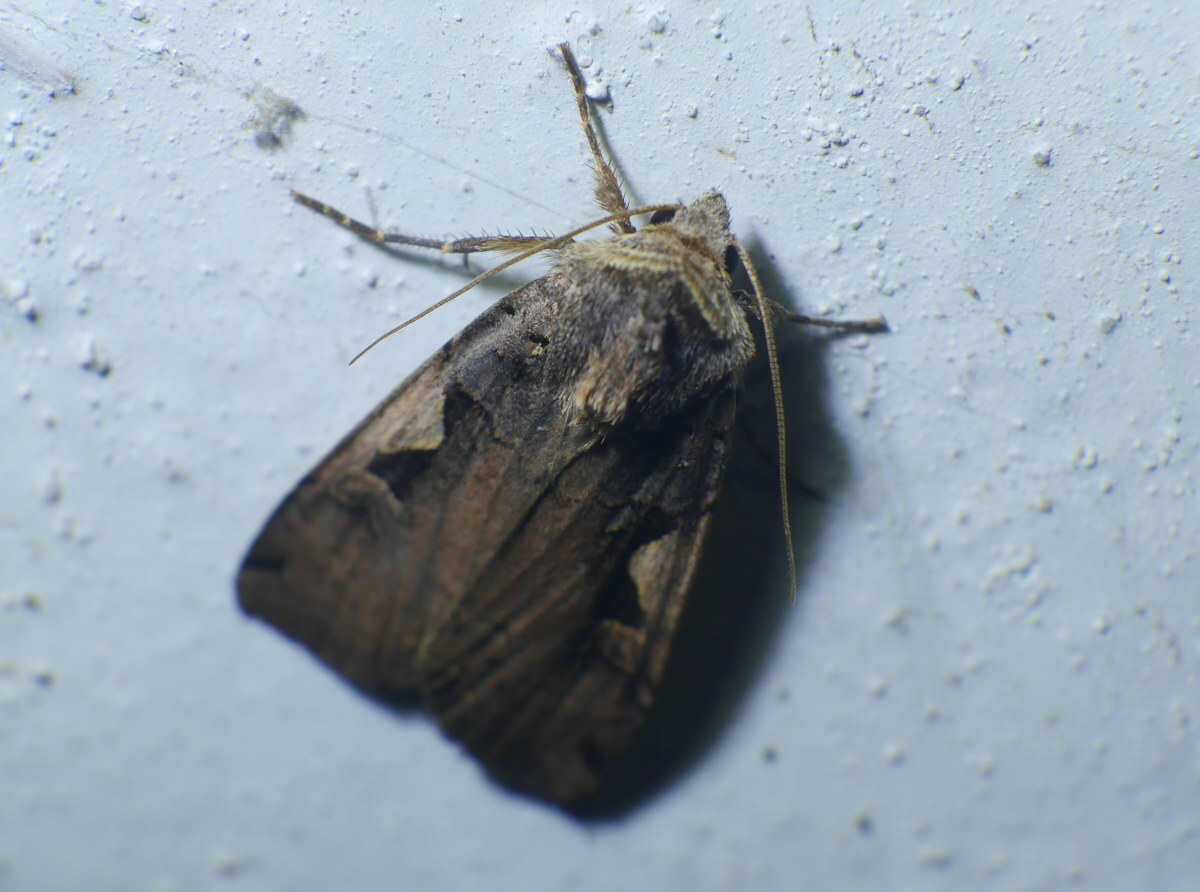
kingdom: Animalia
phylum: Arthropoda
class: Insecta
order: Lepidoptera
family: Noctuidae
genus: Xestia
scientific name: Xestia c-nigrum
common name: Setaceous hebrew character
